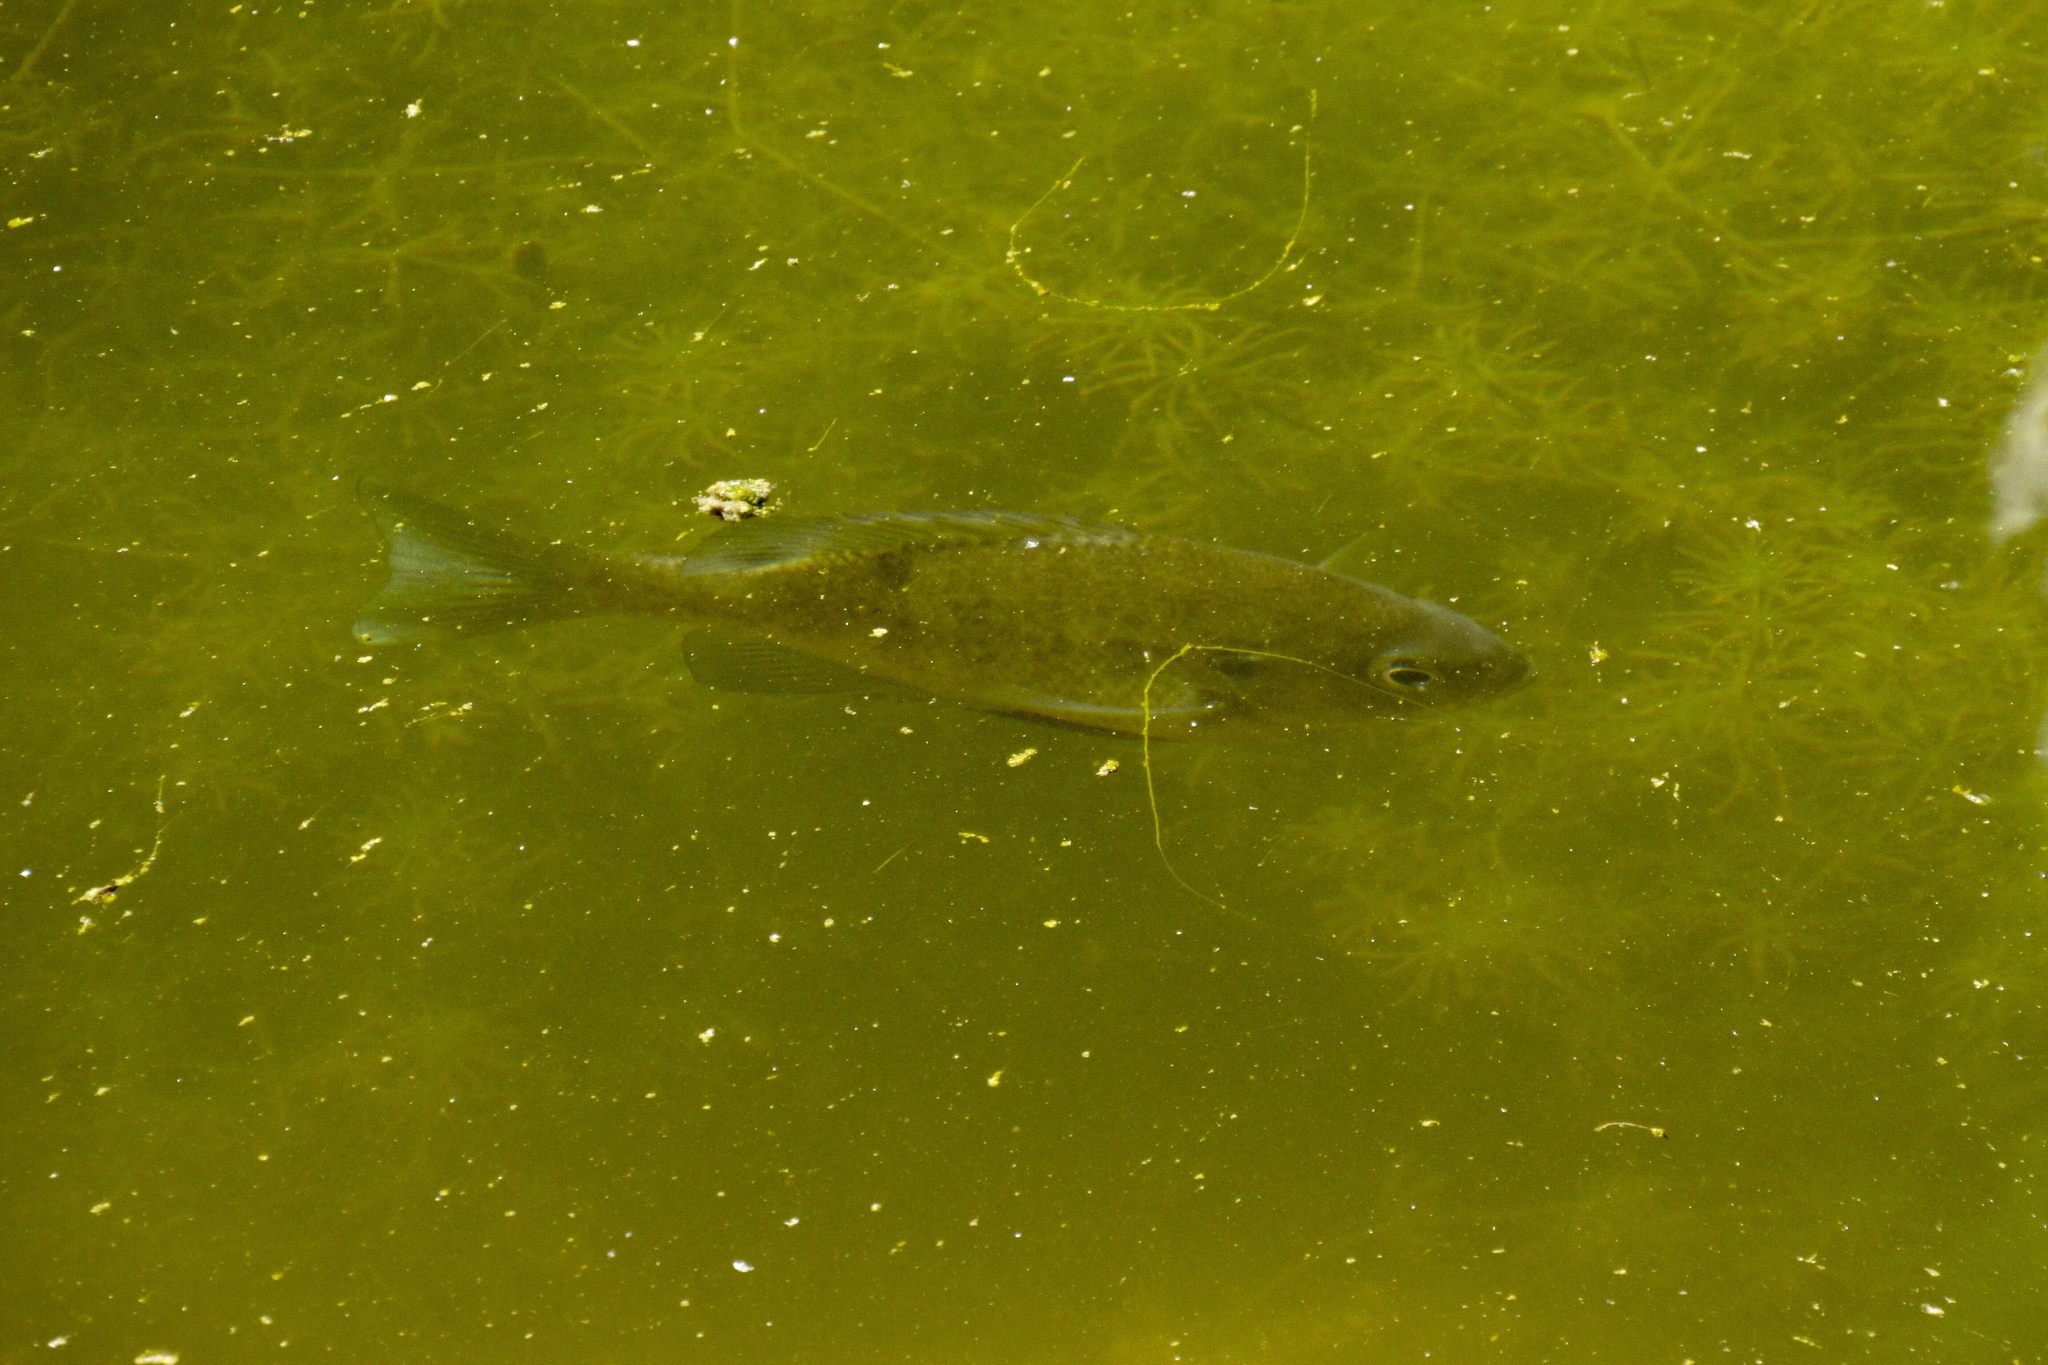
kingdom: Animalia
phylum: Chordata
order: Perciformes
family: Centrarchidae
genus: Lepomis
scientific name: Lepomis macrochirus
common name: Bluegill
